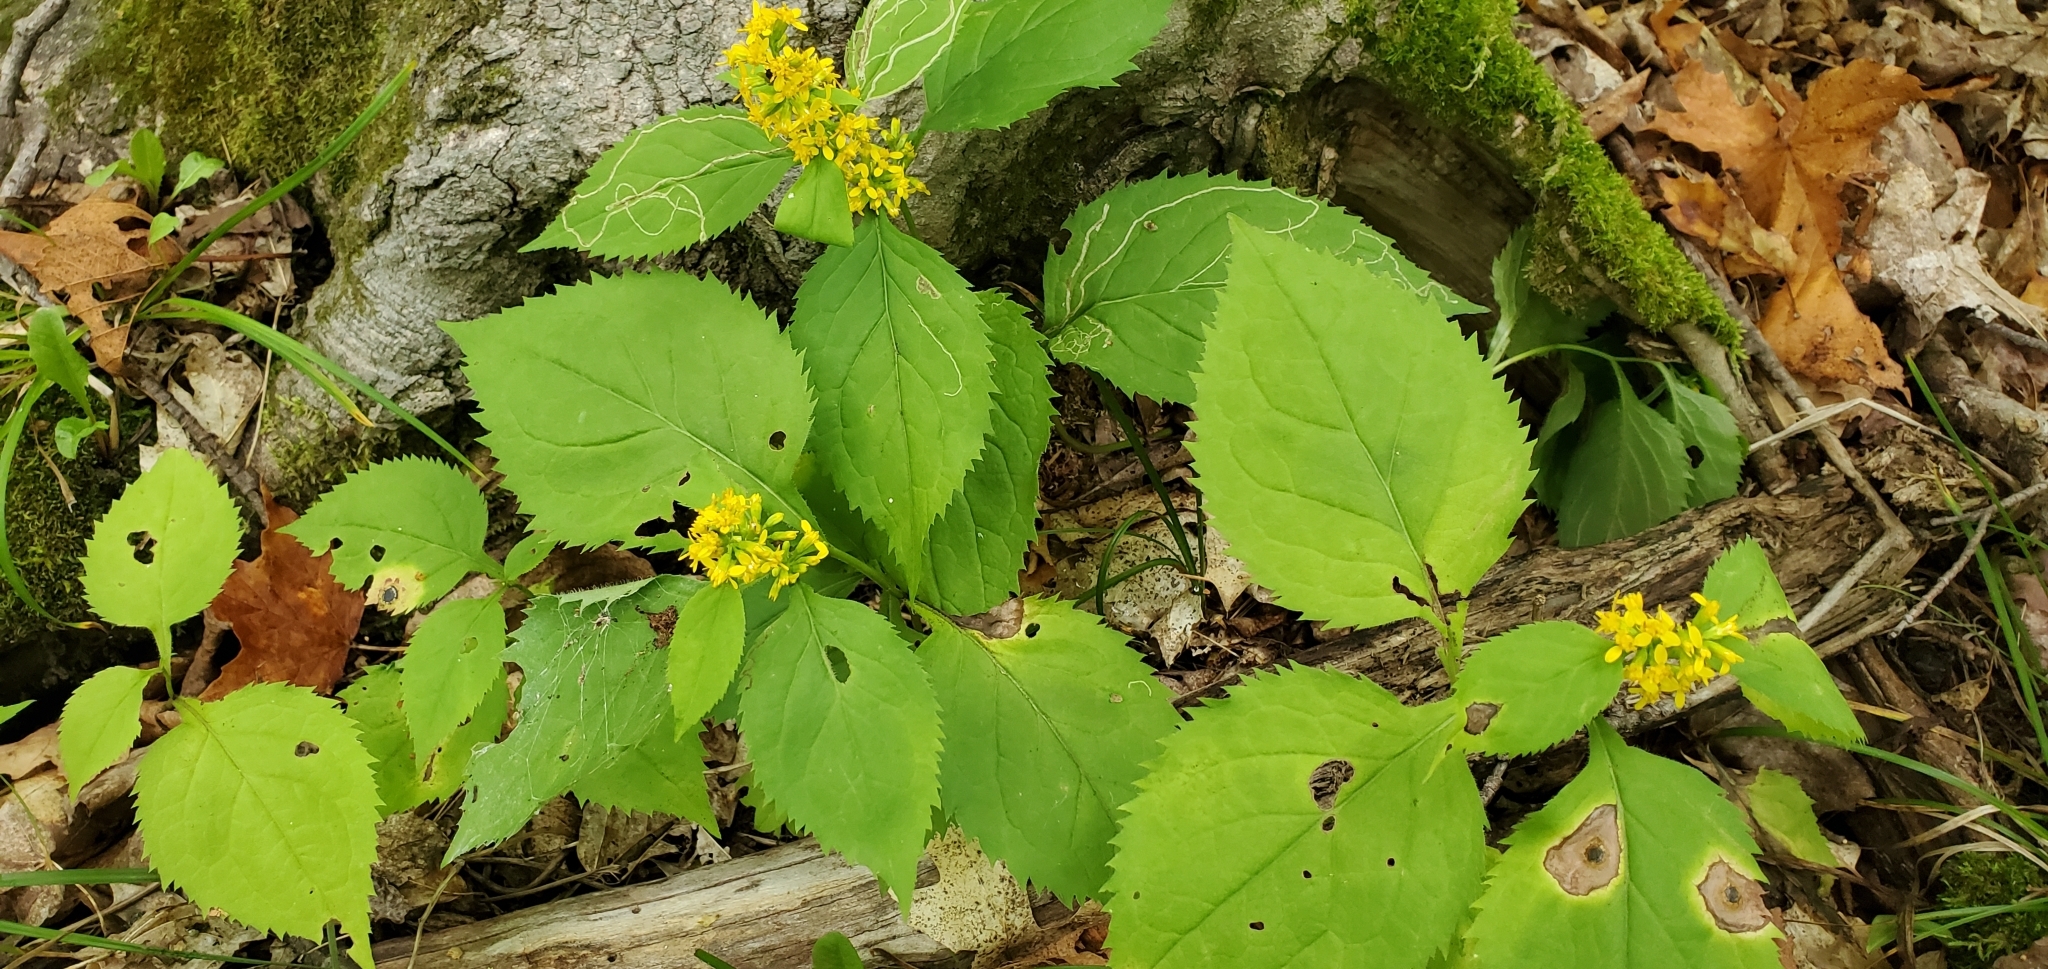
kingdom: Plantae
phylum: Tracheophyta
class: Magnoliopsida
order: Asterales
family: Asteraceae
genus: Solidago
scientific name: Solidago flexicaulis
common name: Zig-zag goldenrod
